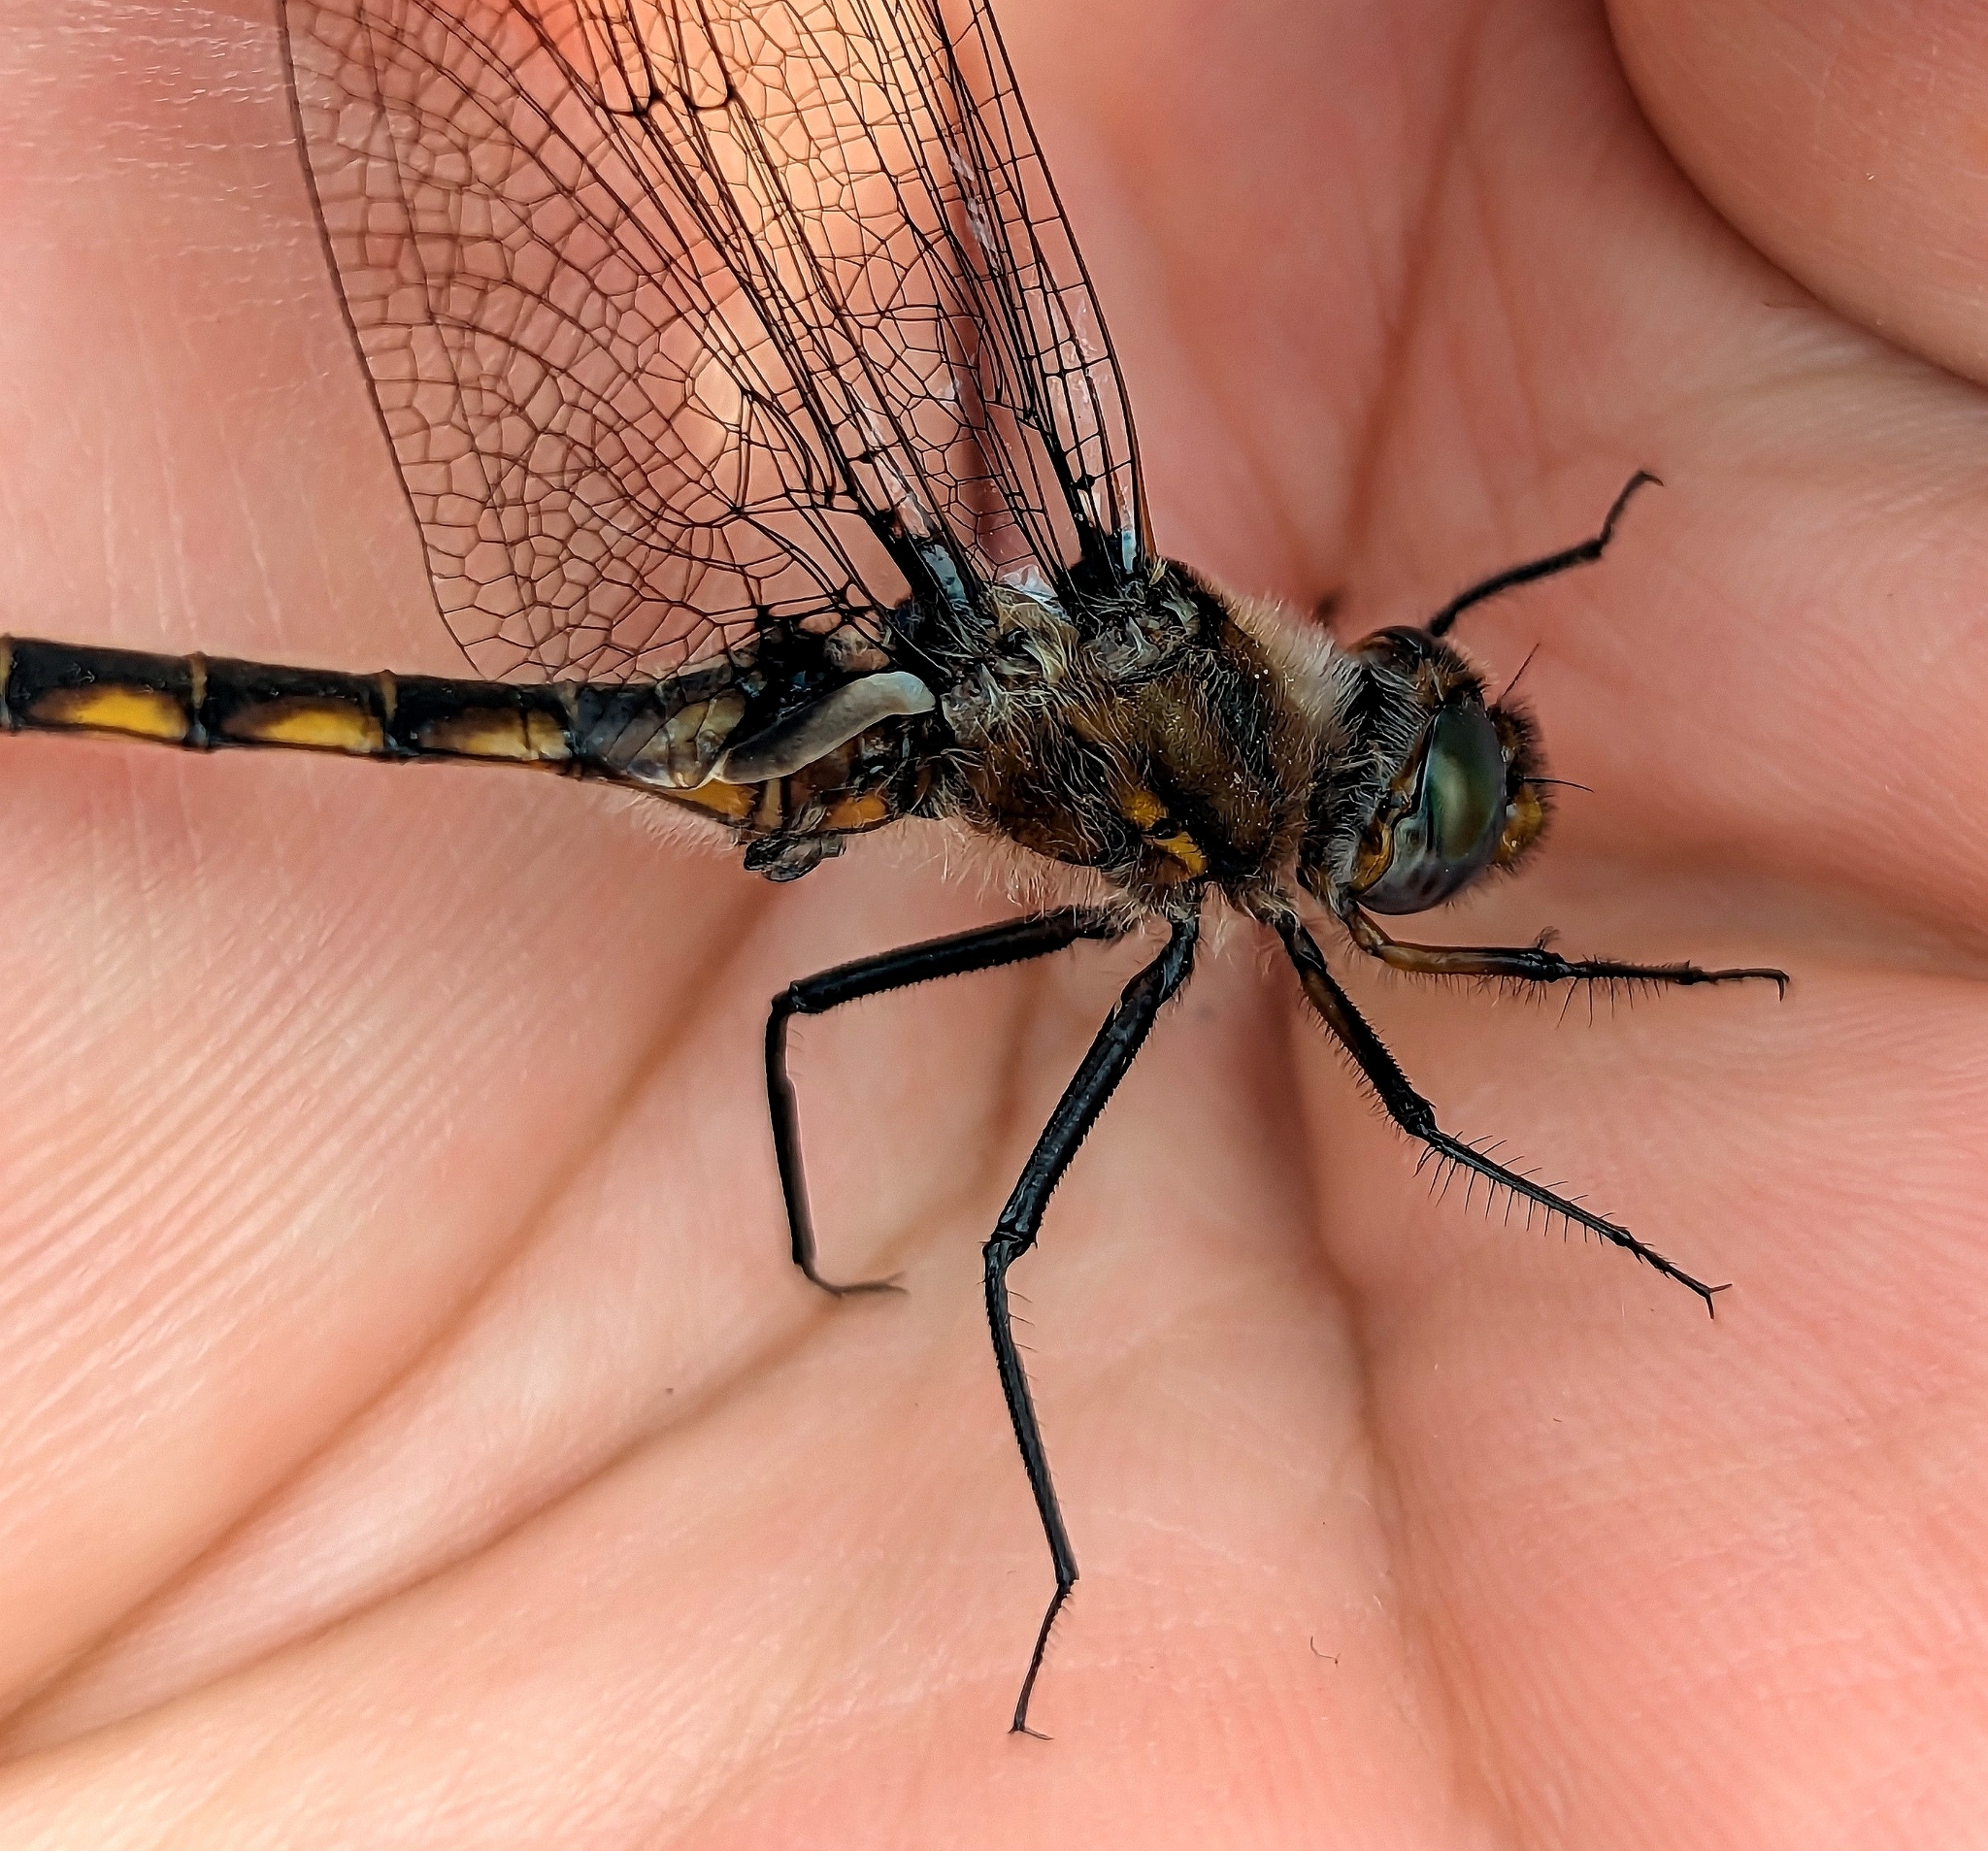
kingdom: Animalia
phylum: Arthropoda
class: Insecta
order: Odonata
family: Corduliidae
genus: Epitheca
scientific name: Epitheca canis
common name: Beaverpond baskettail
